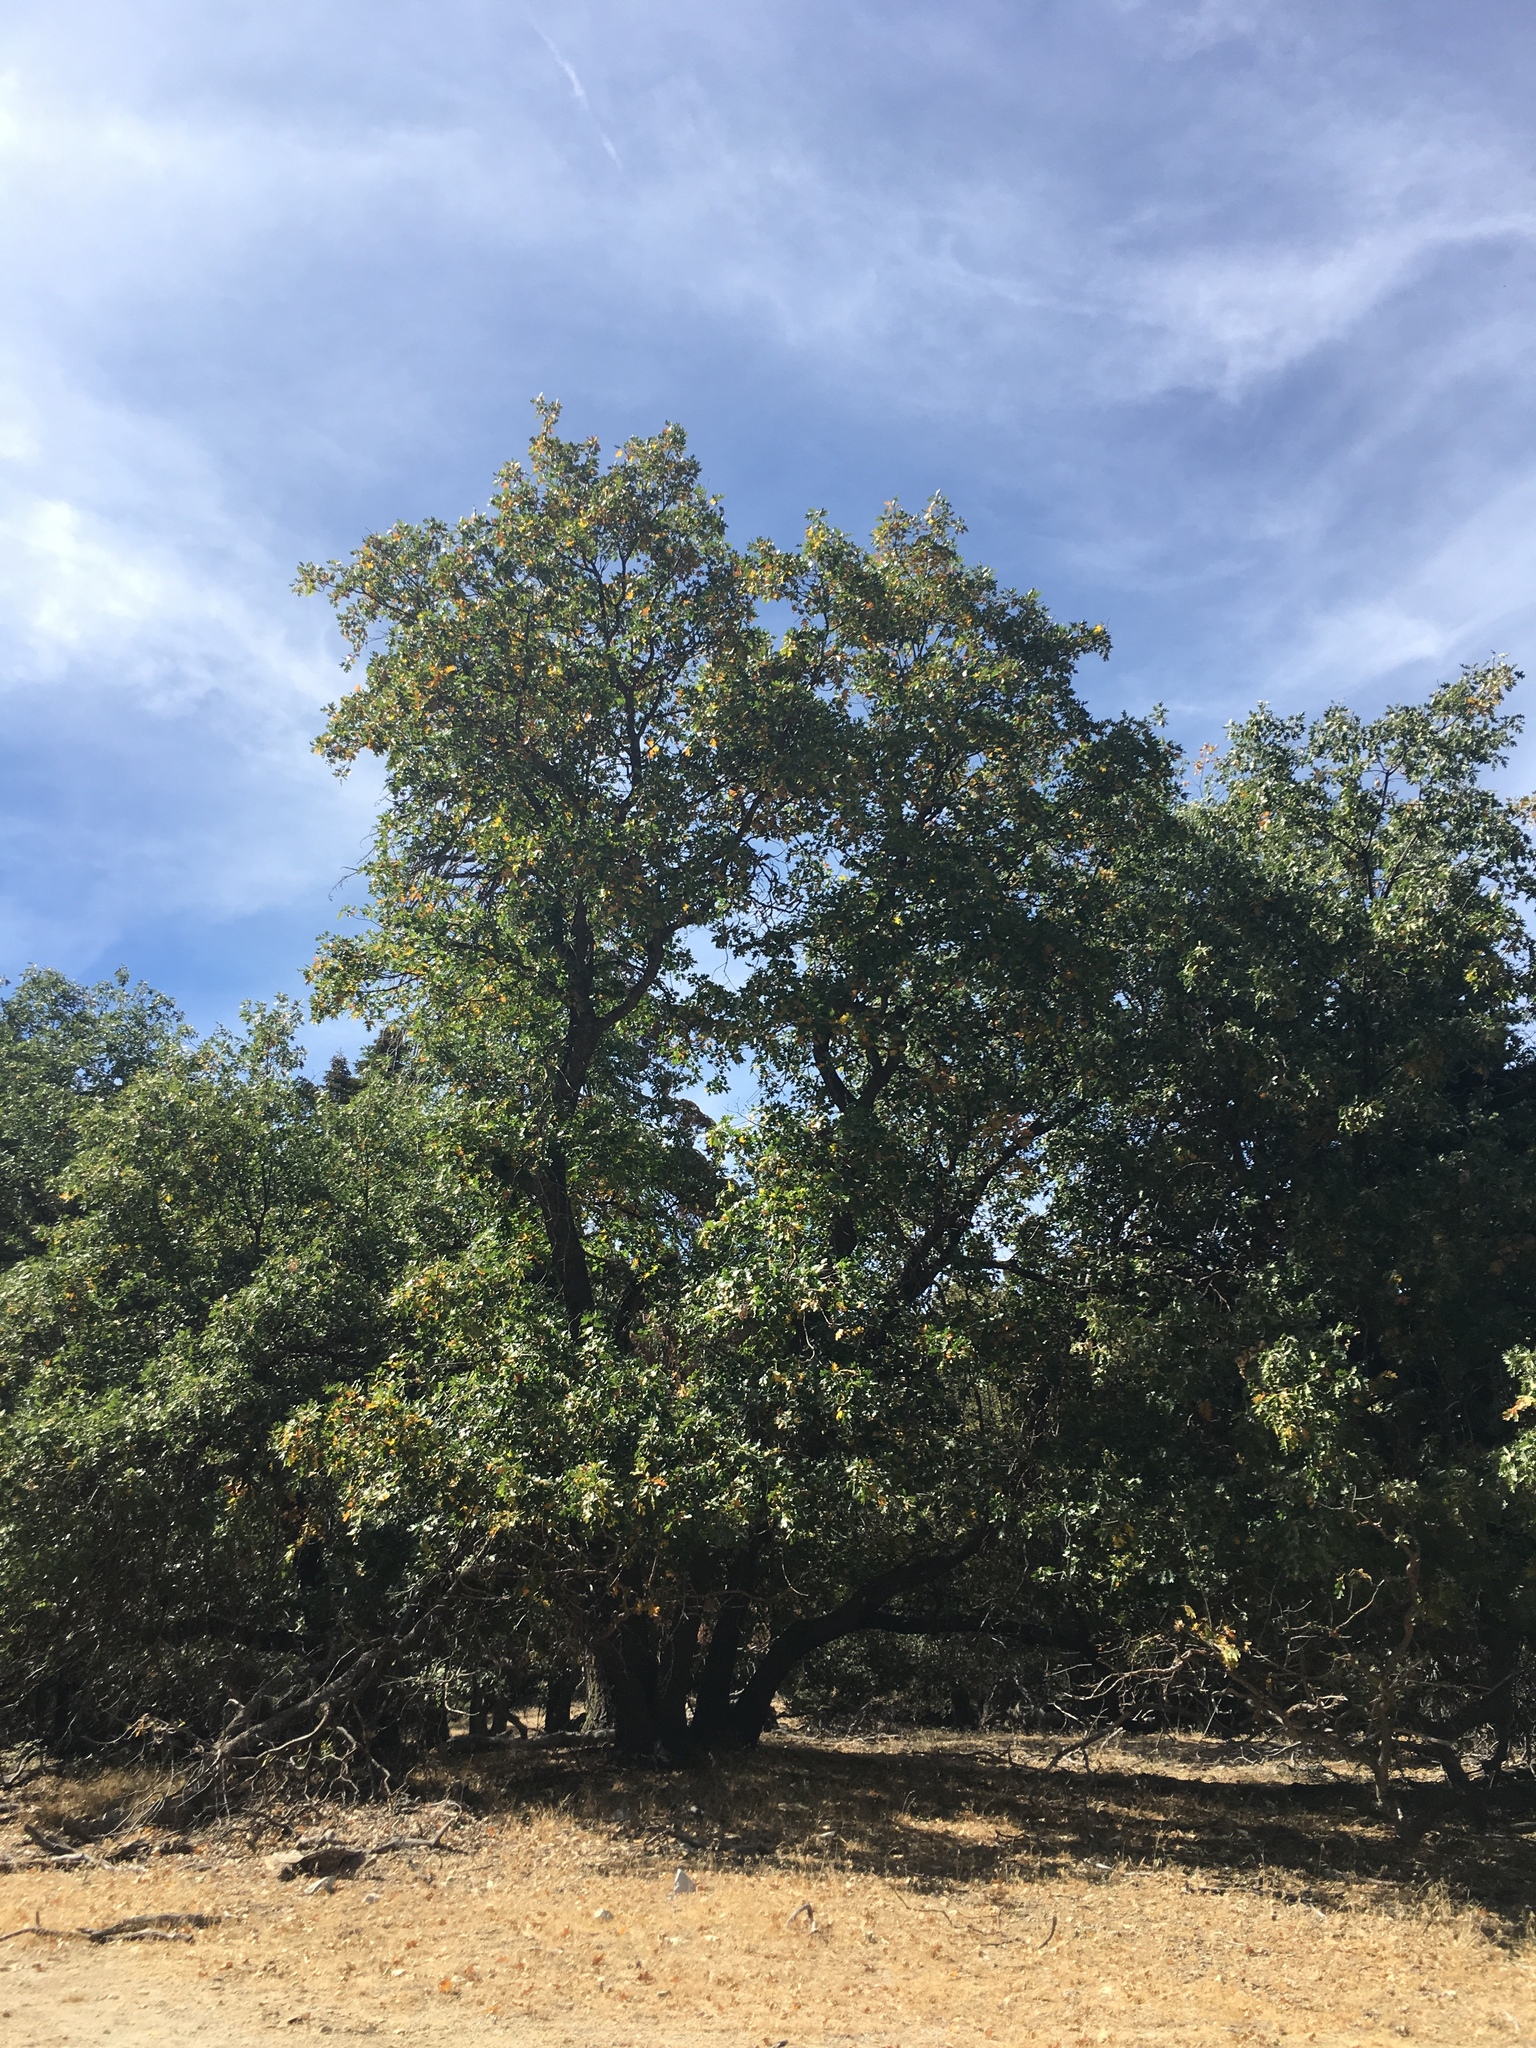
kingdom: Plantae
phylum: Tracheophyta
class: Magnoliopsida
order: Fagales
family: Fagaceae
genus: Quercus
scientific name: Quercus kelloggii
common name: California black oak
